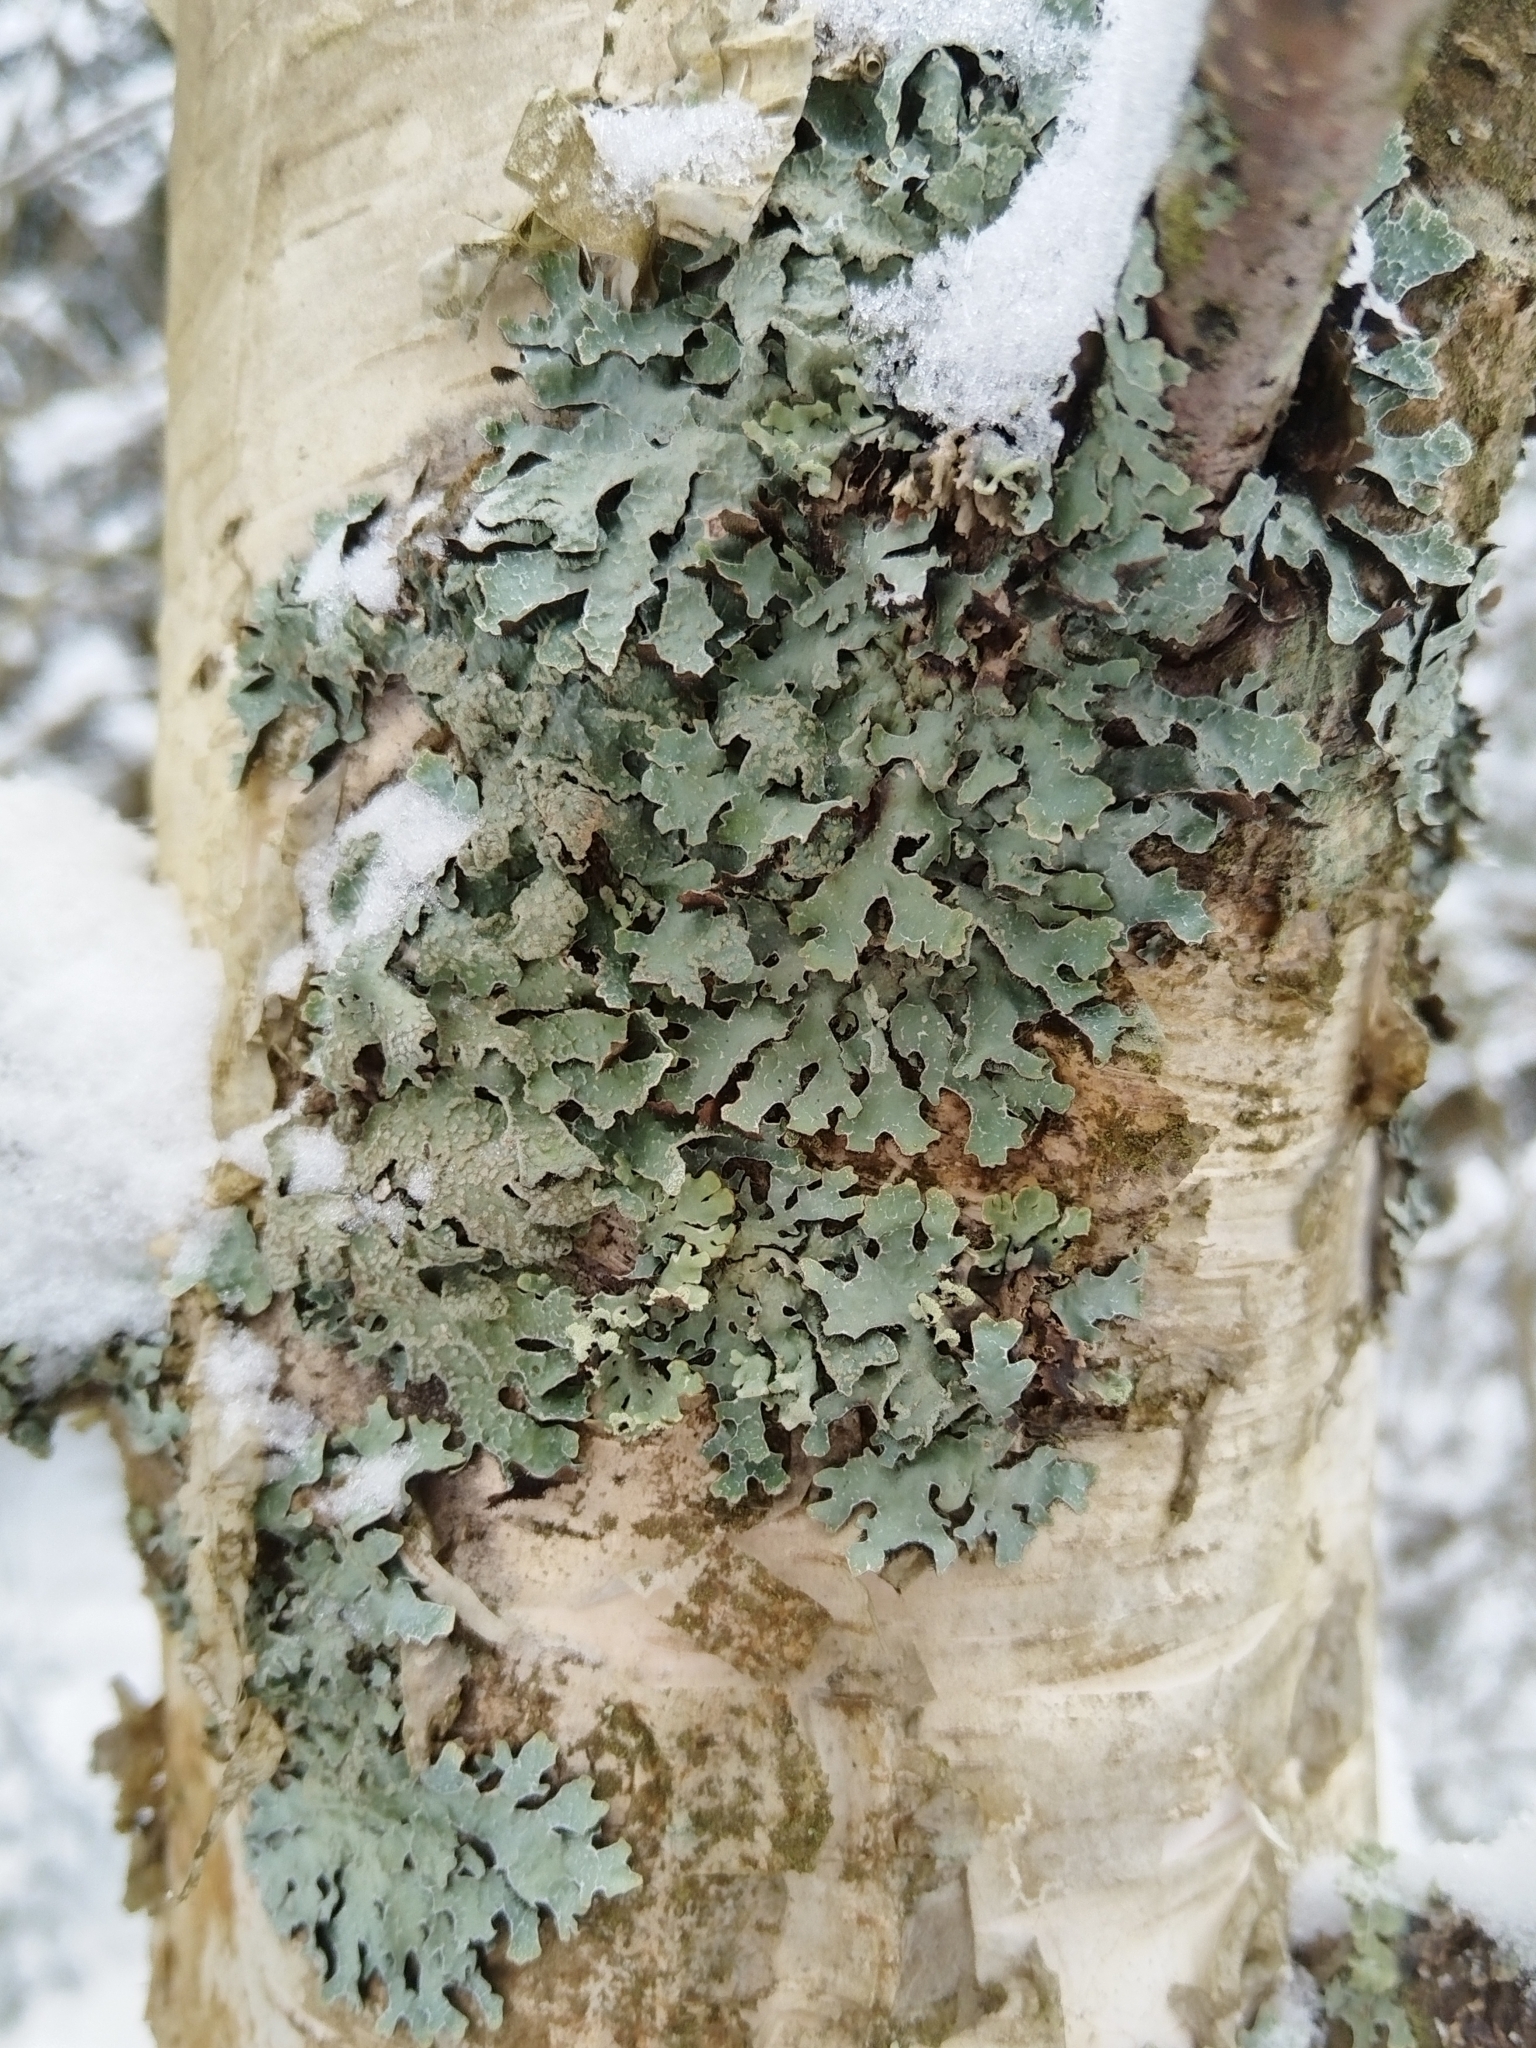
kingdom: Fungi
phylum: Ascomycota
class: Lecanoromycetes
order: Lecanorales
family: Parmeliaceae
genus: Parmelia
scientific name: Parmelia sulcata
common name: Netted shield lichen
